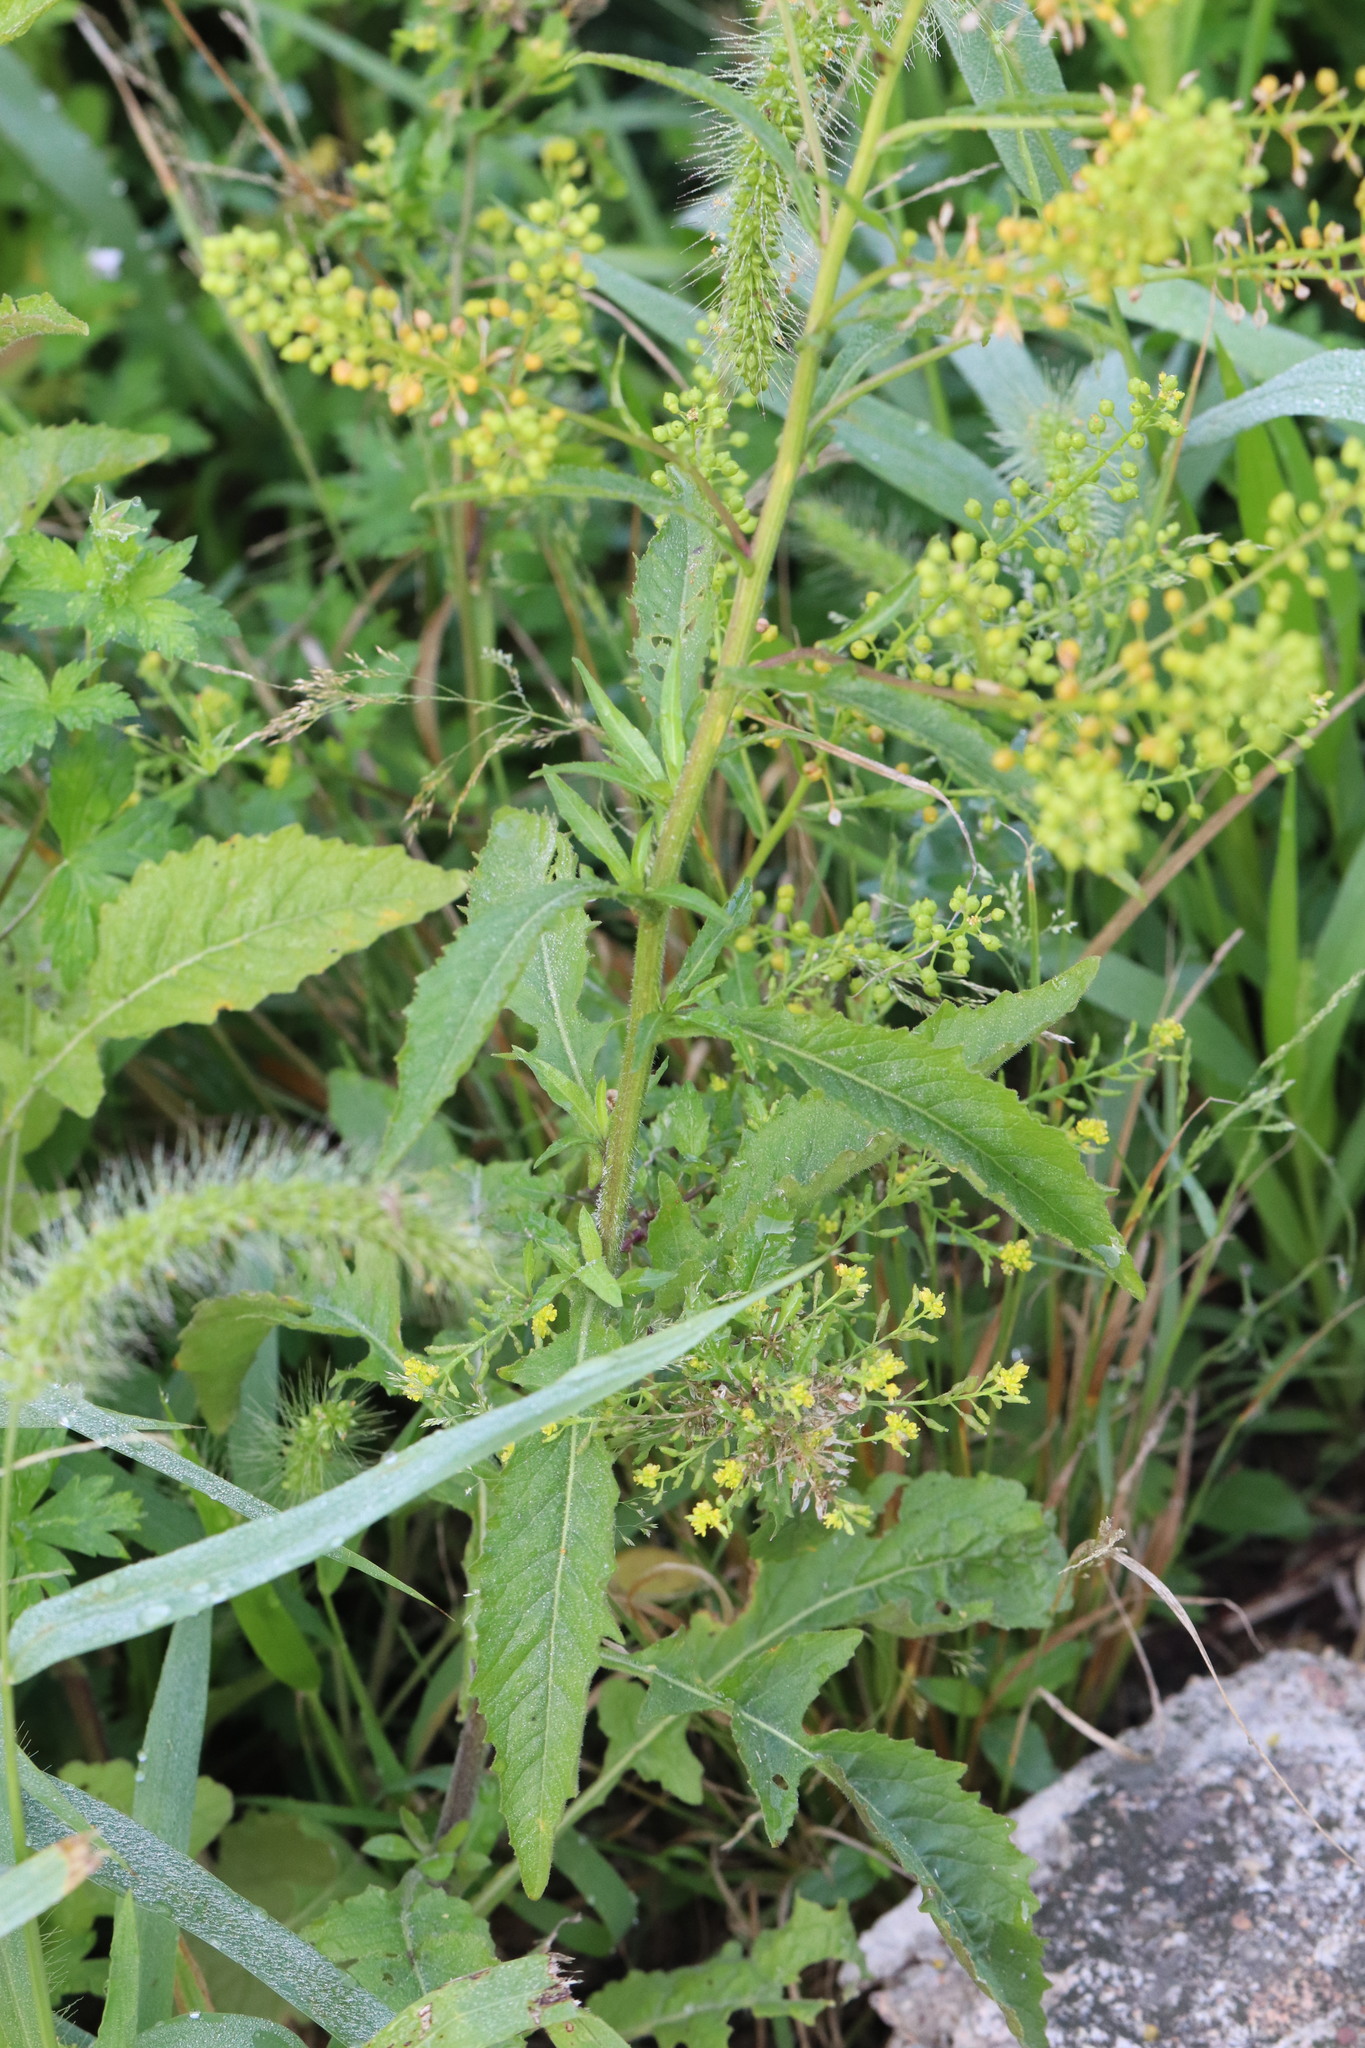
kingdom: Plantae
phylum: Tracheophyta
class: Magnoliopsida
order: Brassicales
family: Brassicaceae
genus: Rorippa
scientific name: Rorippa globosa
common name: Globe yellowcress
